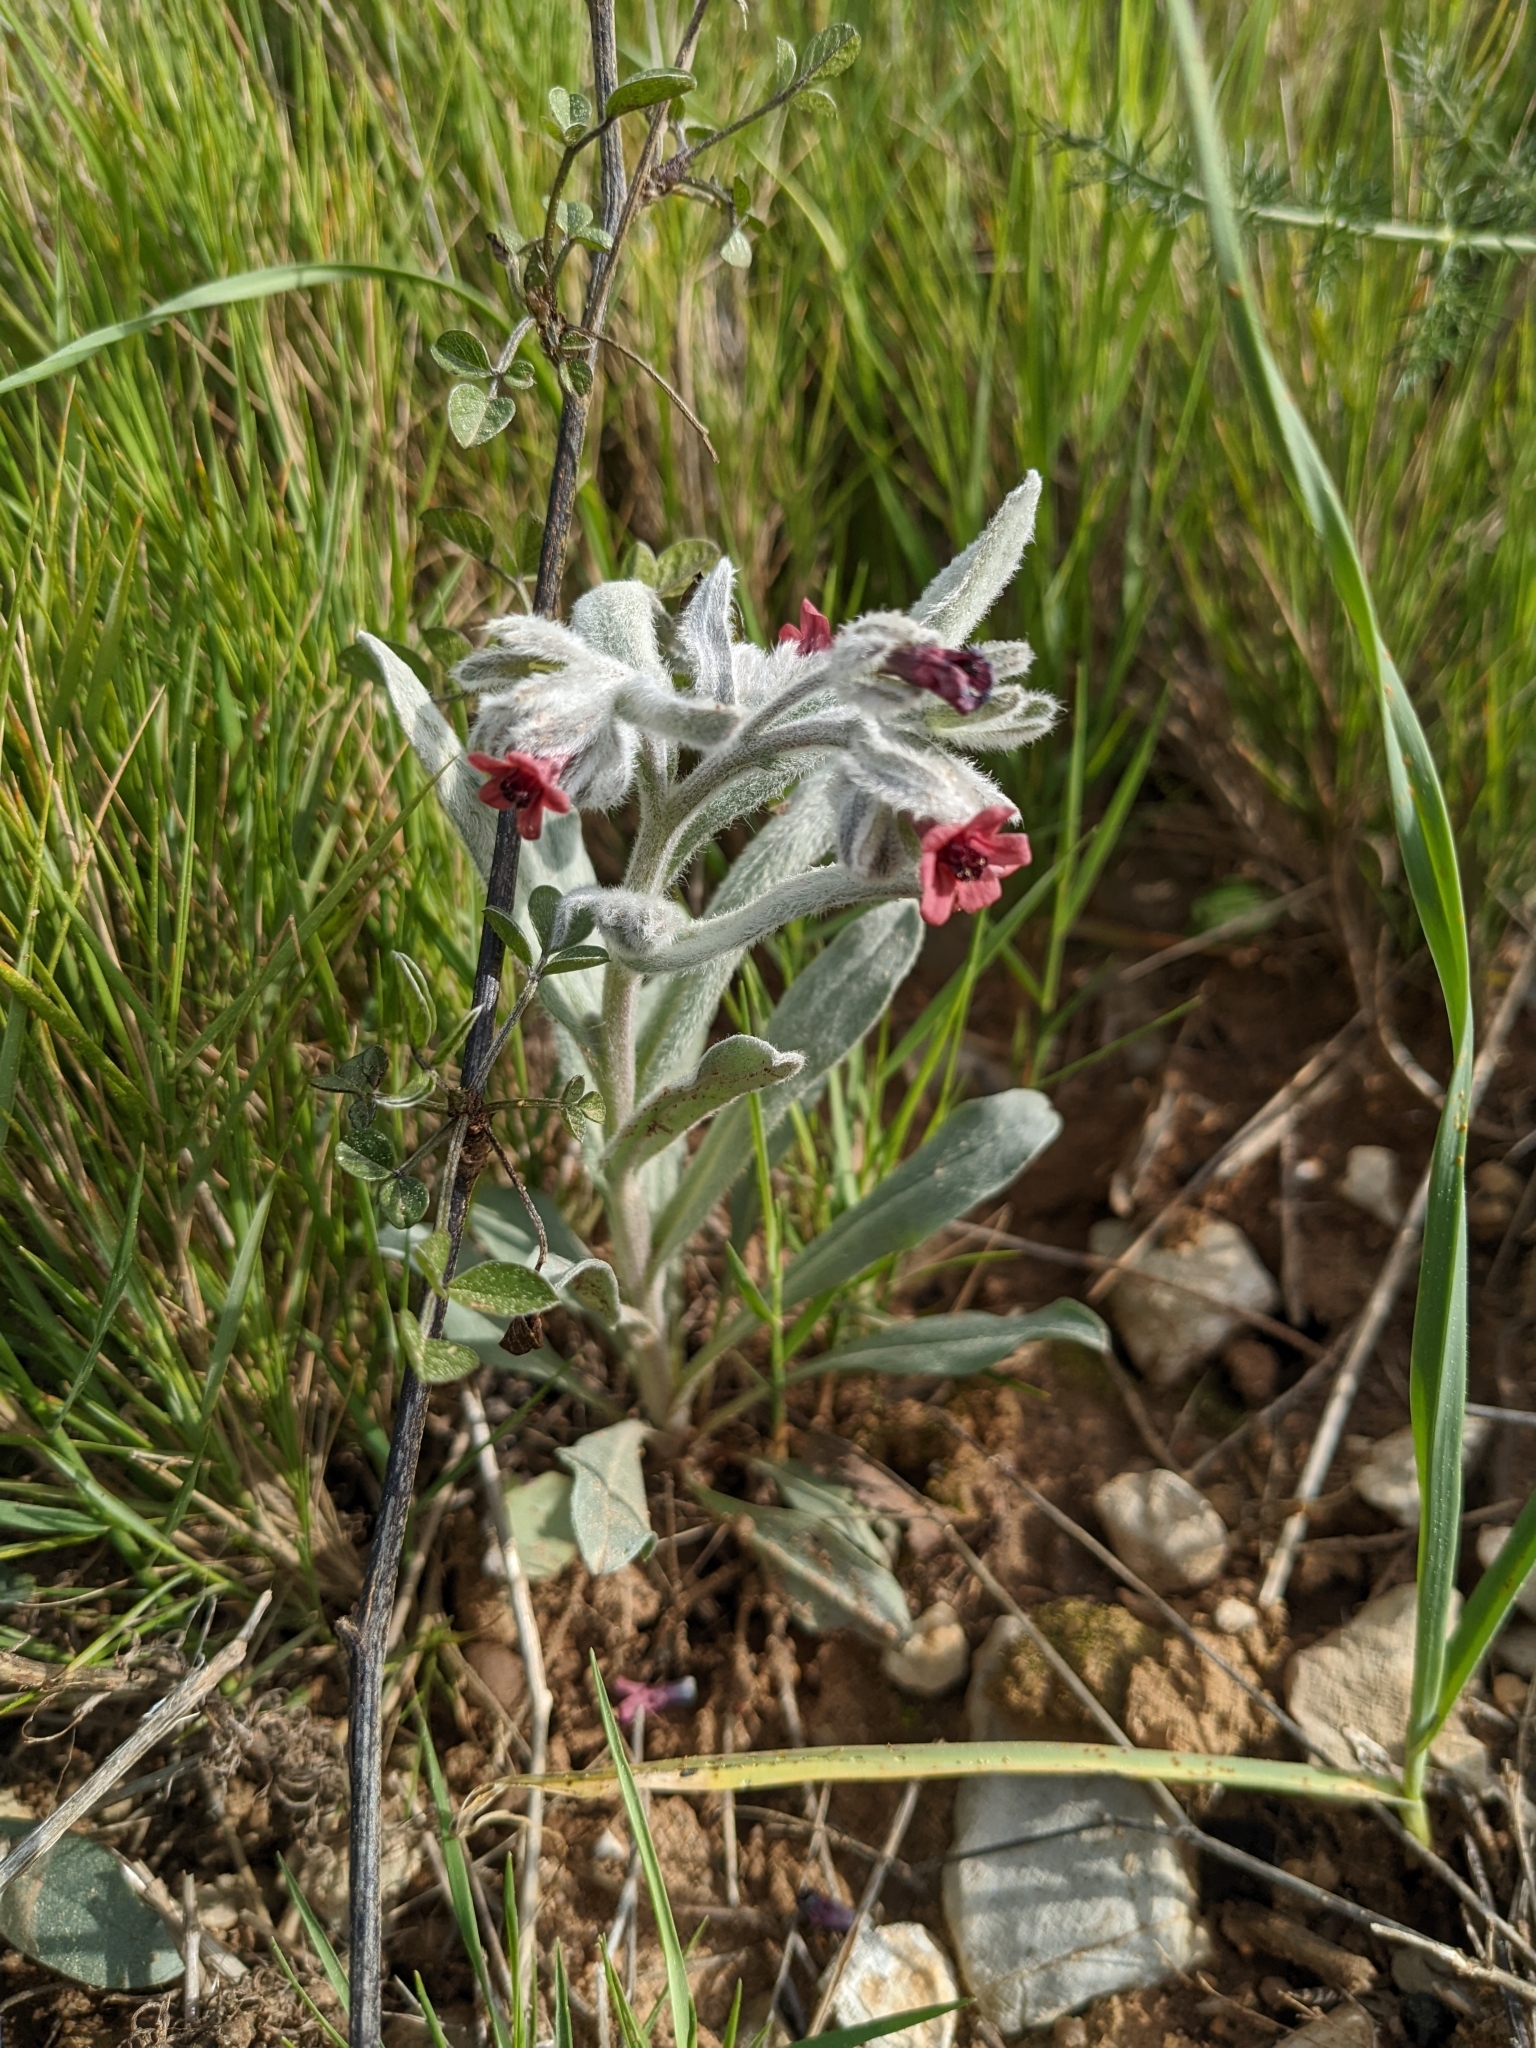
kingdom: Plantae
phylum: Tracheophyta
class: Magnoliopsida
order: Boraginales
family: Boraginaceae
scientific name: Boraginaceae
